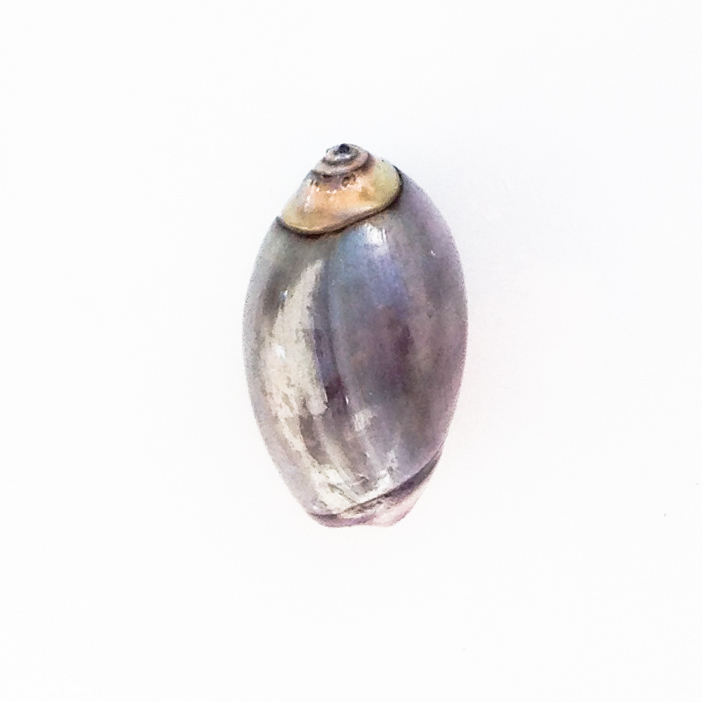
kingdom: Animalia
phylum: Mollusca
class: Gastropoda
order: Neogastropoda
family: Olividae
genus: Callianax
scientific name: Callianax biplicata
